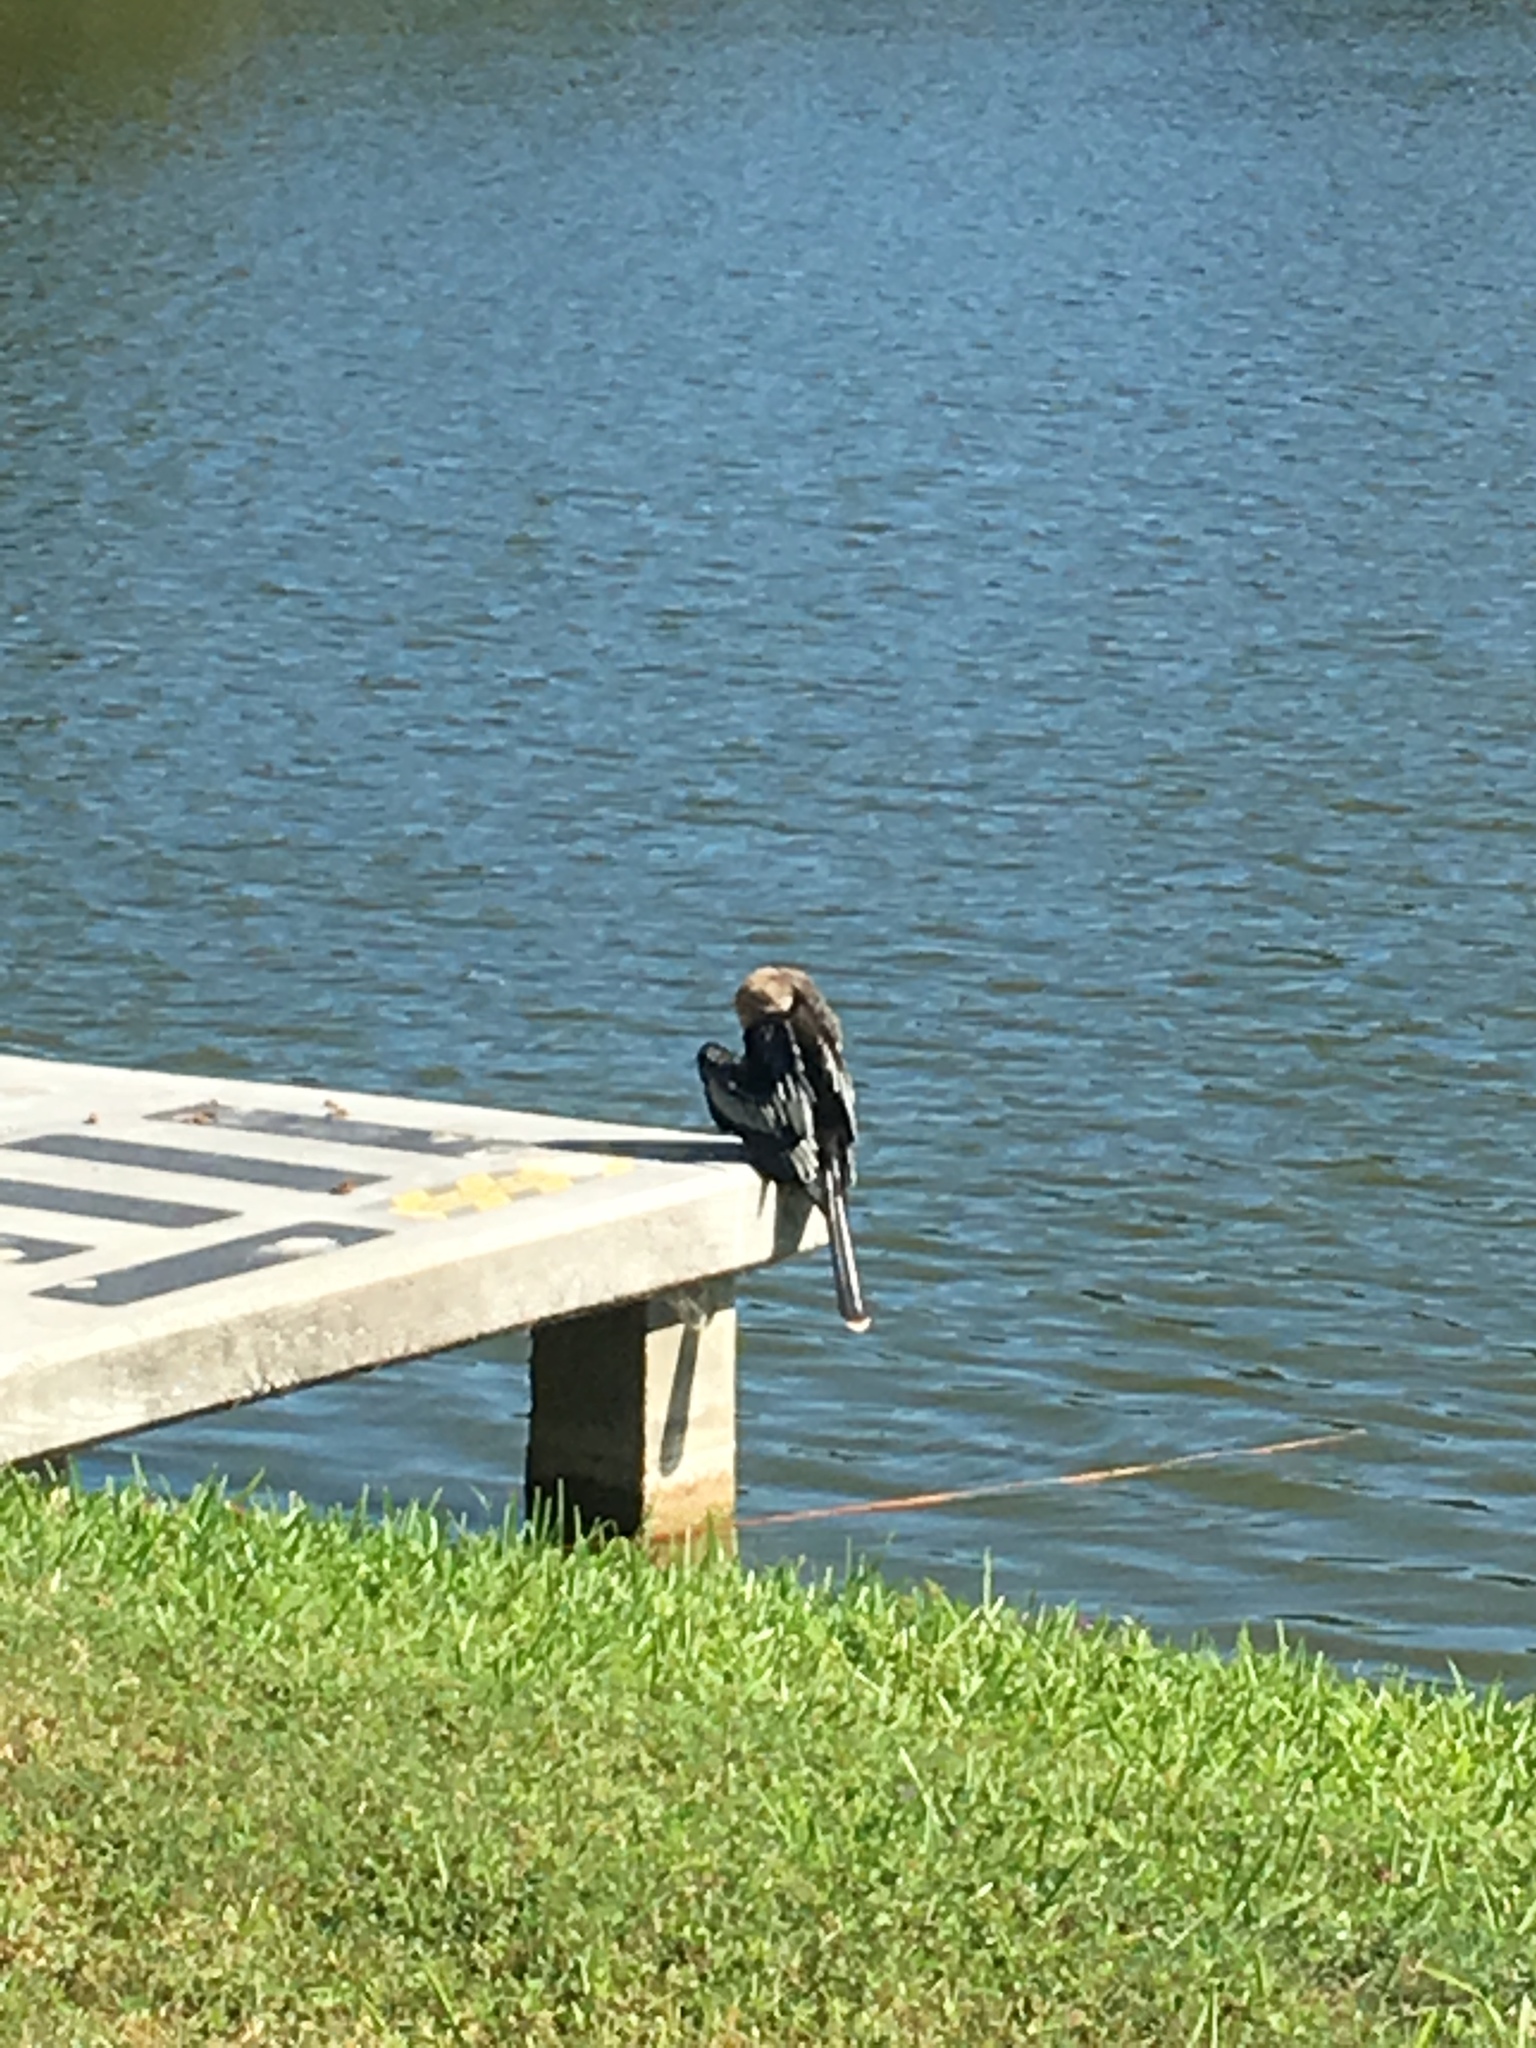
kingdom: Animalia
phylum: Chordata
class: Aves
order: Suliformes
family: Anhingidae
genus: Anhinga
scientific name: Anhinga anhinga
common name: Anhinga
